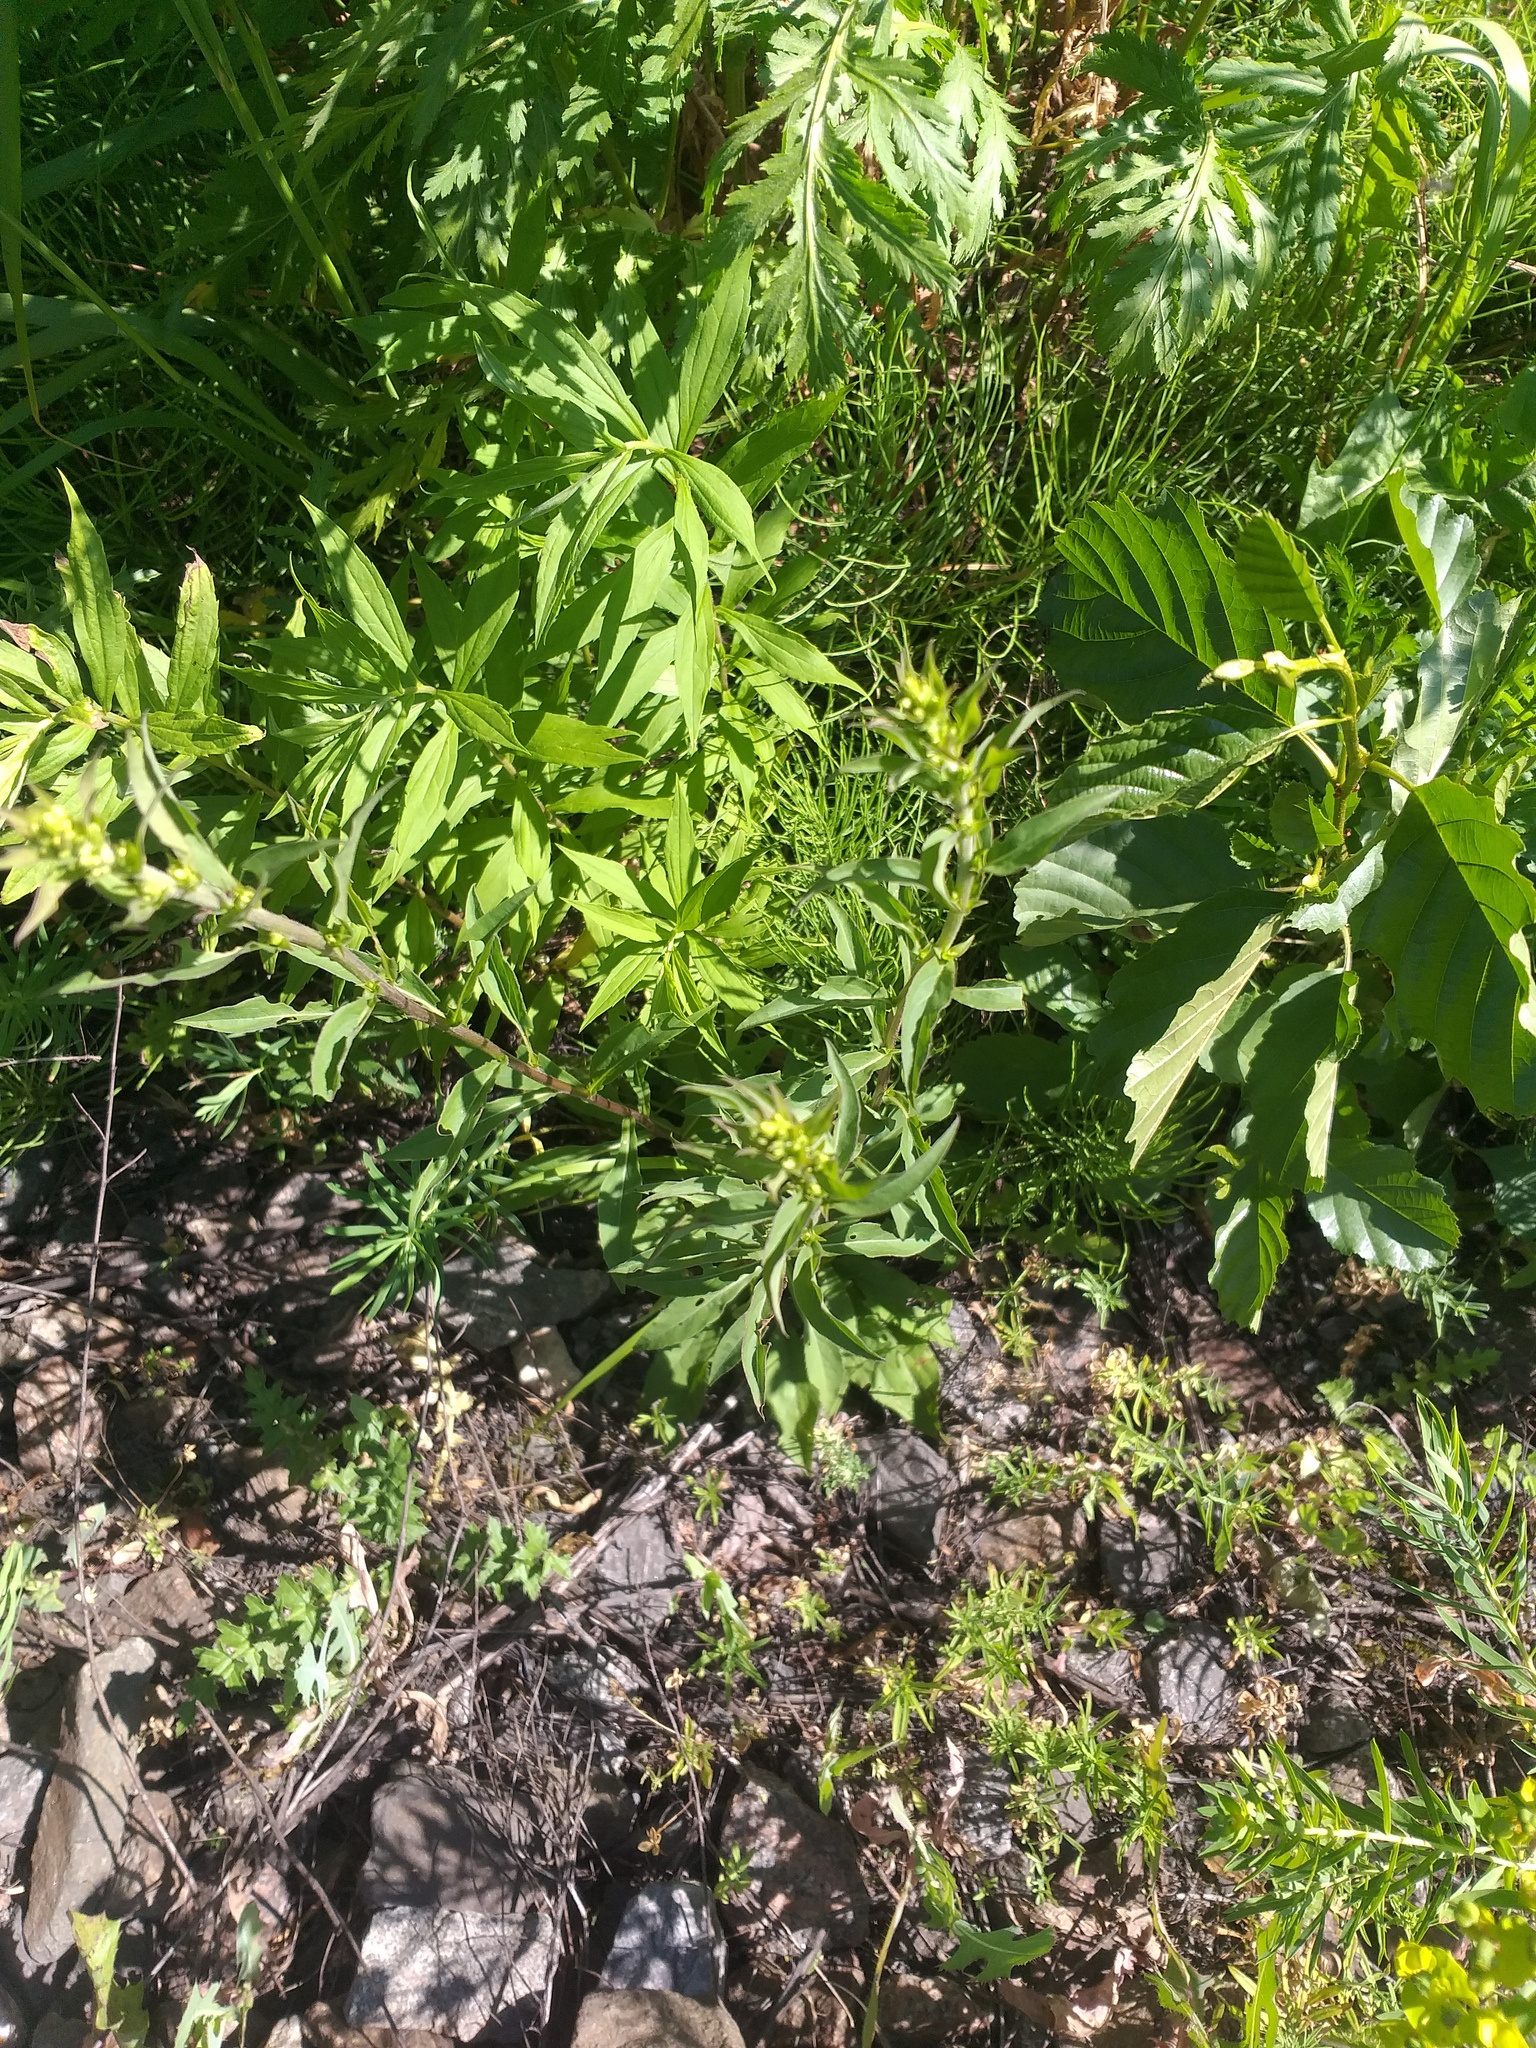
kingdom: Plantae
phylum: Tracheophyta
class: Magnoliopsida
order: Asterales
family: Asteraceae
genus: Solidago
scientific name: Solidago virgaurea
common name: Goldenrod
